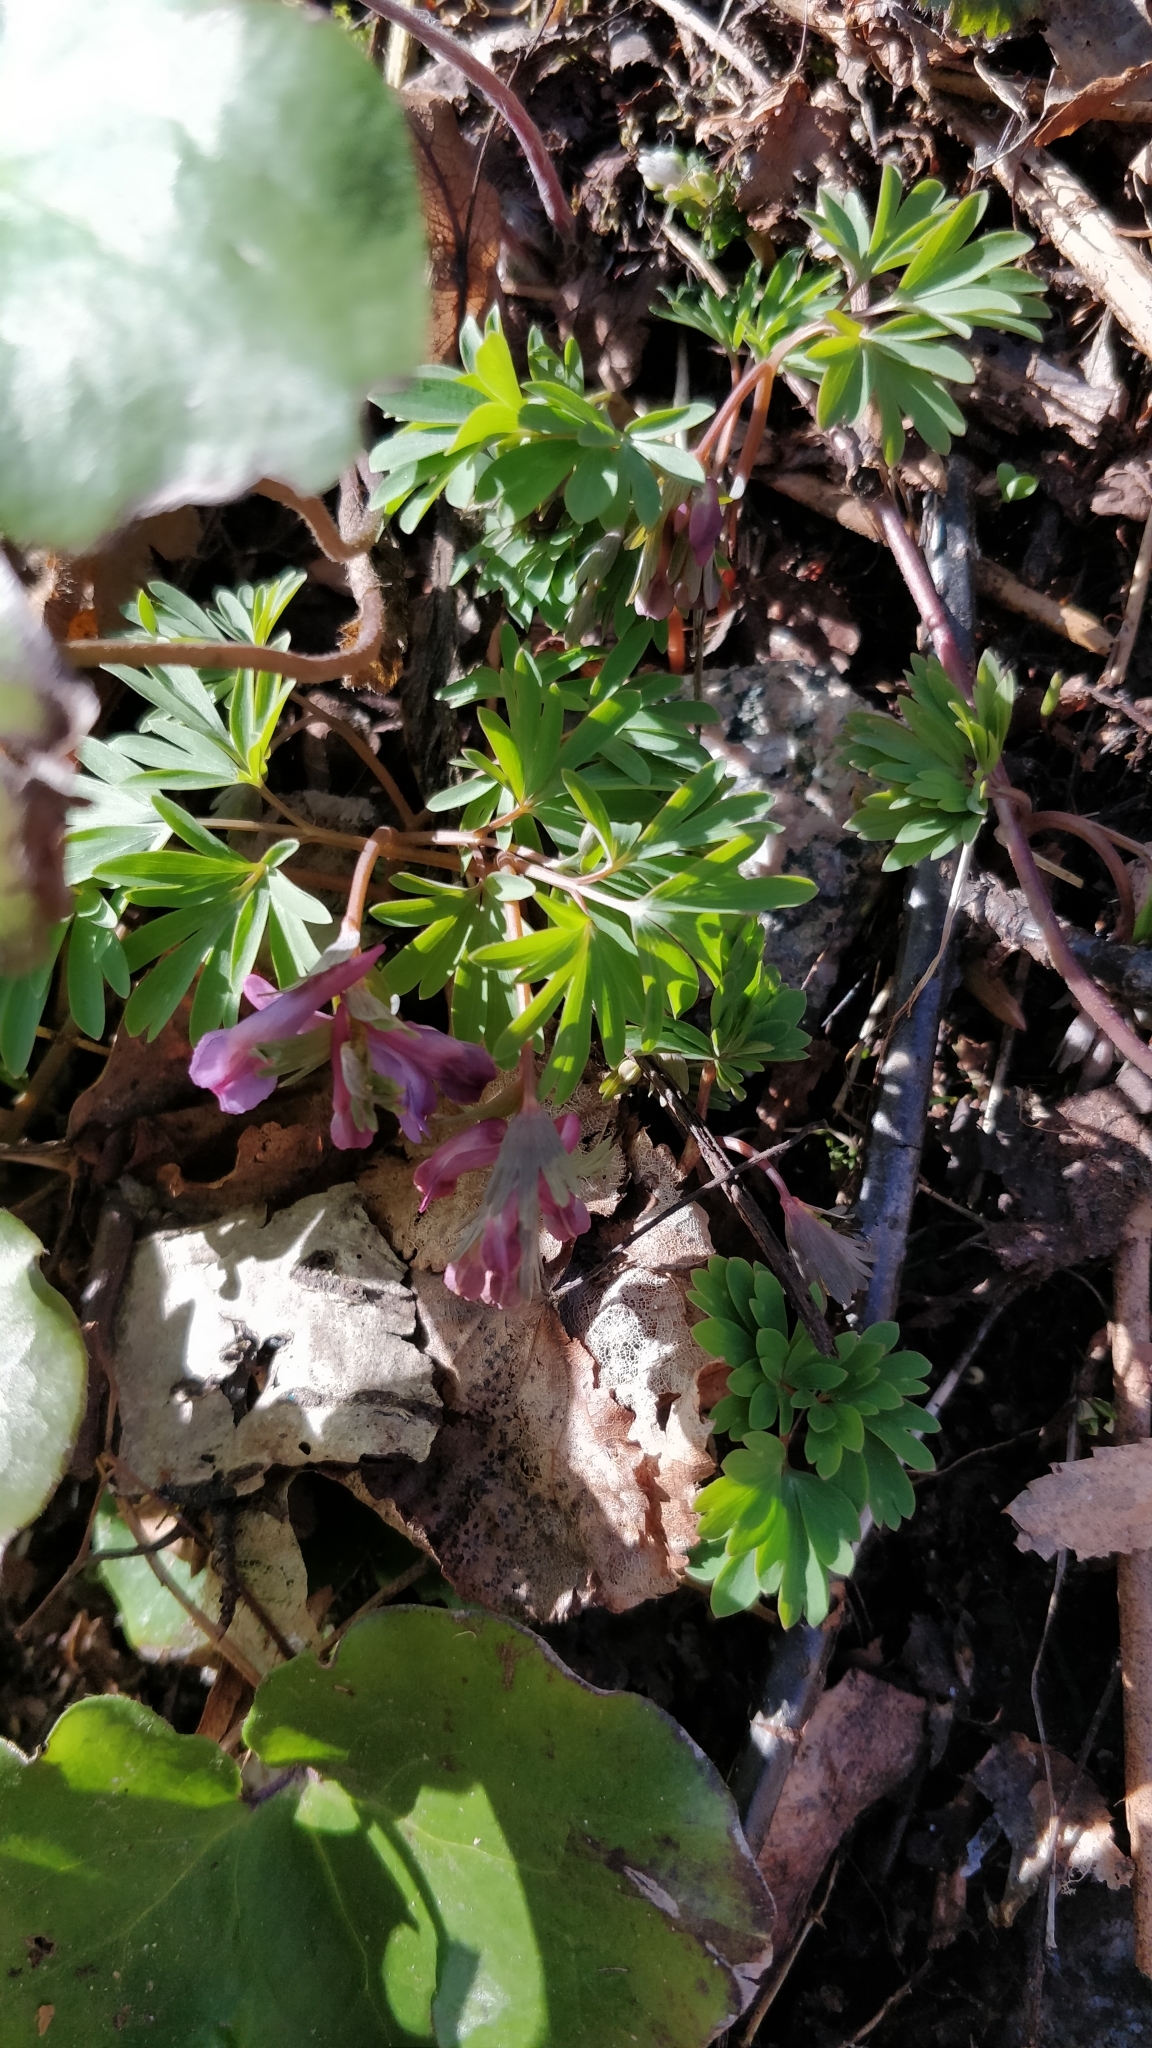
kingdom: Plantae
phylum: Tracheophyta
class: Magnoliopsida
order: Ranunculales
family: Papaveraceae
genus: Corydalis
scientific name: Corydalis solida
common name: Bird-in-a-bush
